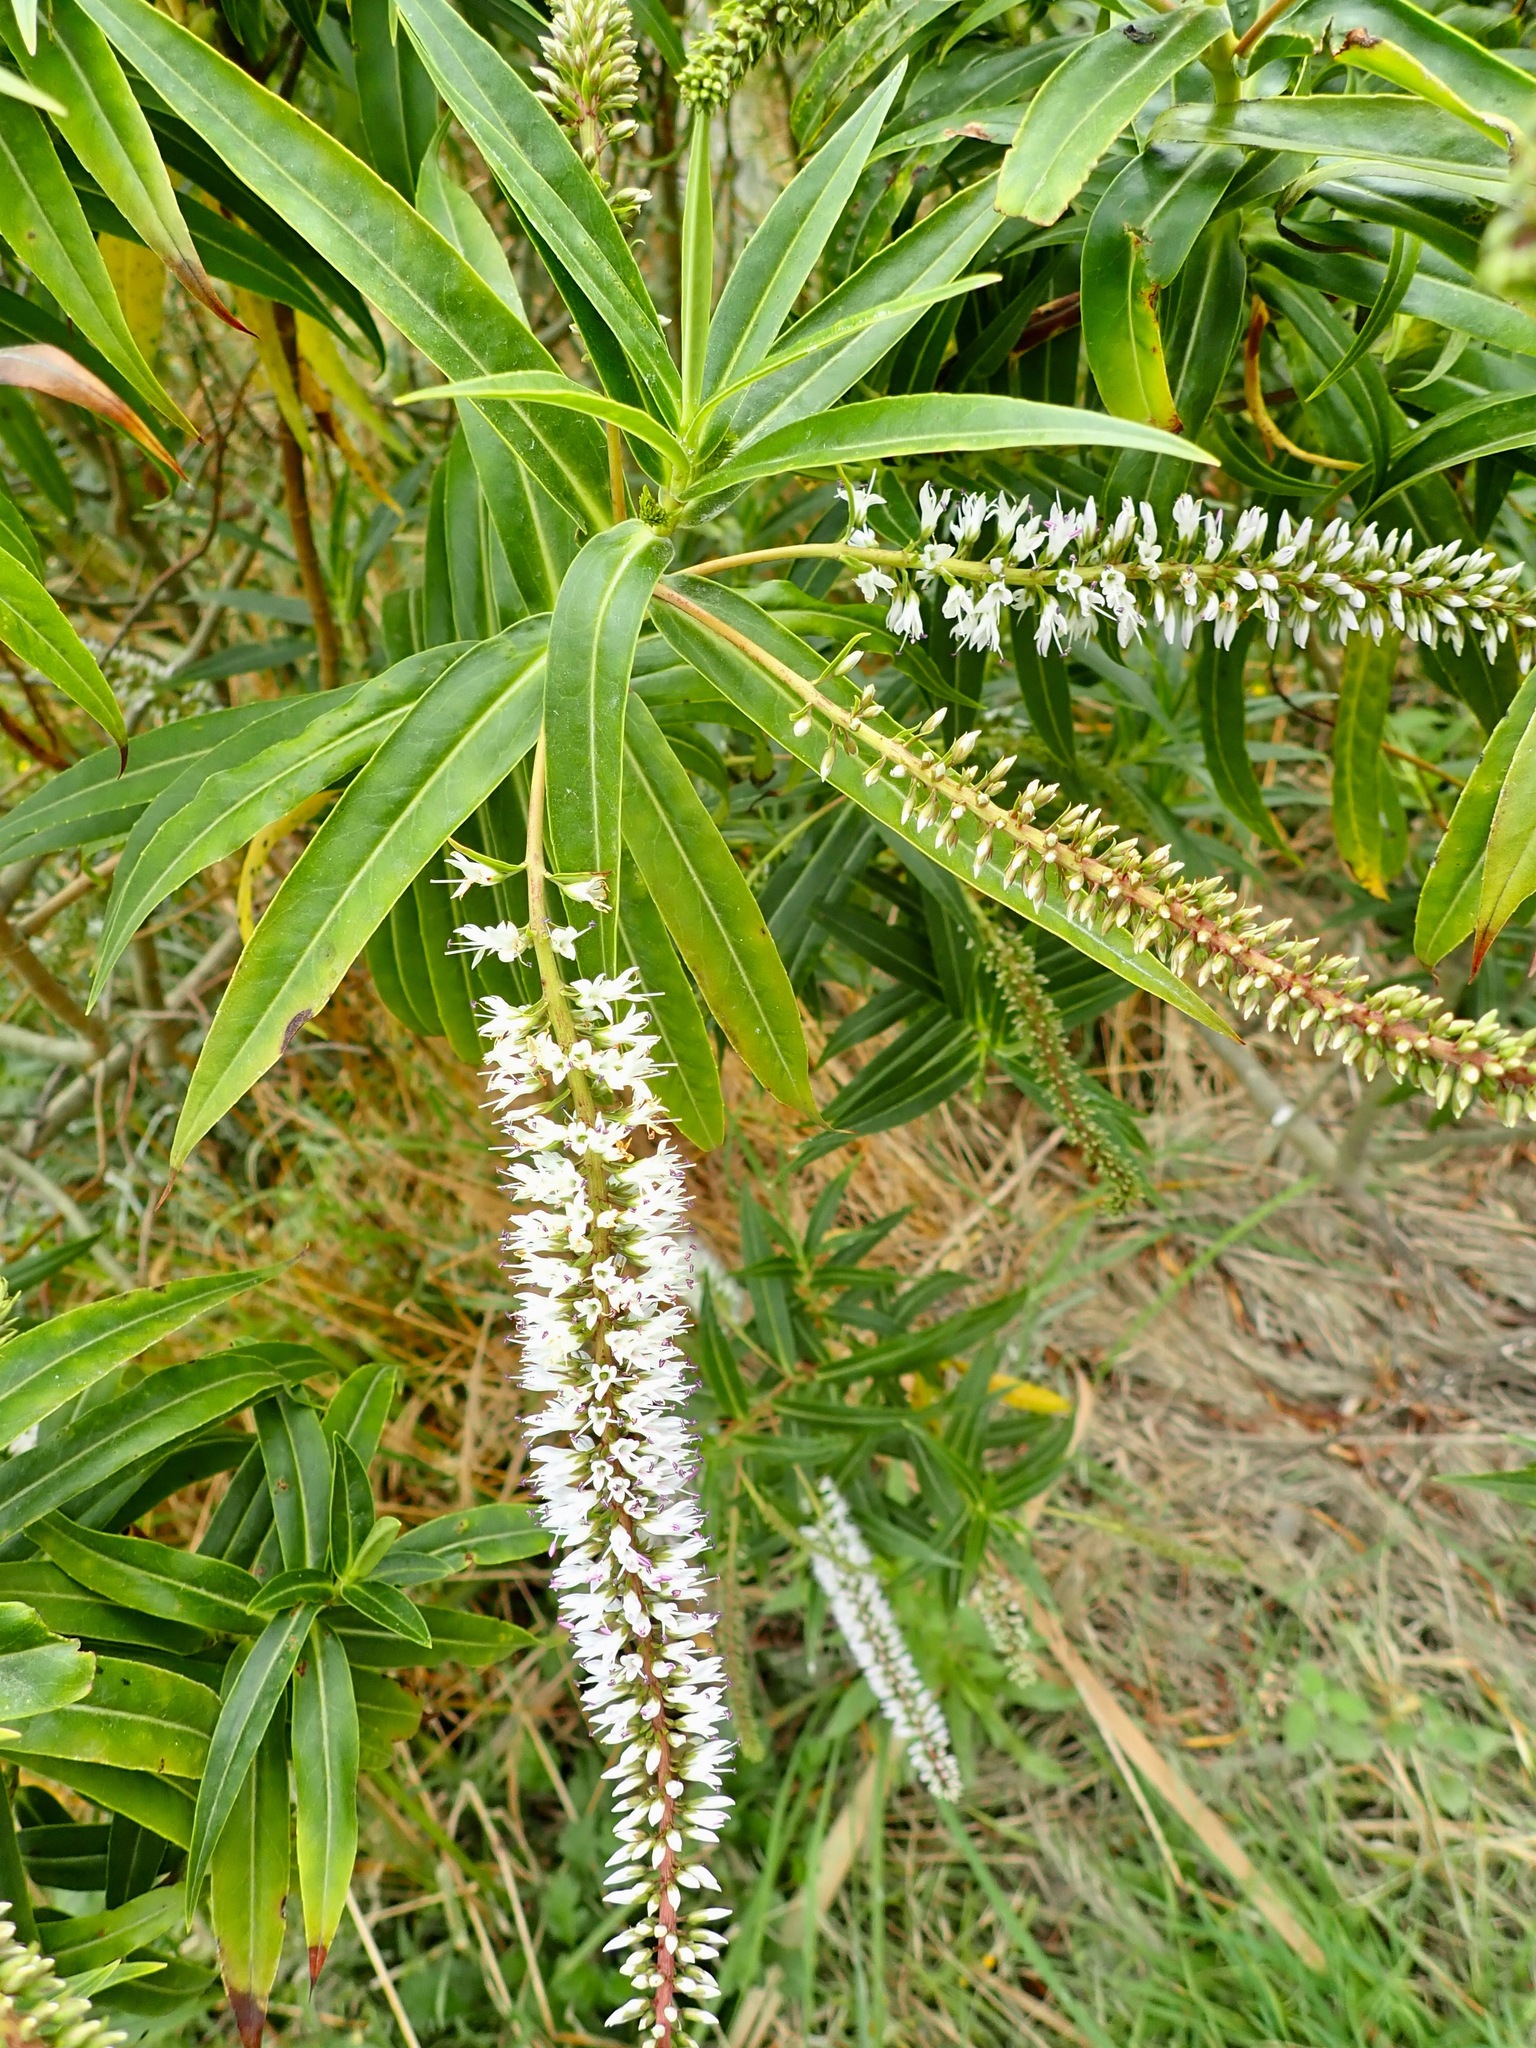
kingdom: Plantae
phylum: Tracheophyta
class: Magnoliopsida
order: Lamiales
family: Plantaginaceae
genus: Veronica
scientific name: Veronica salicifolia
